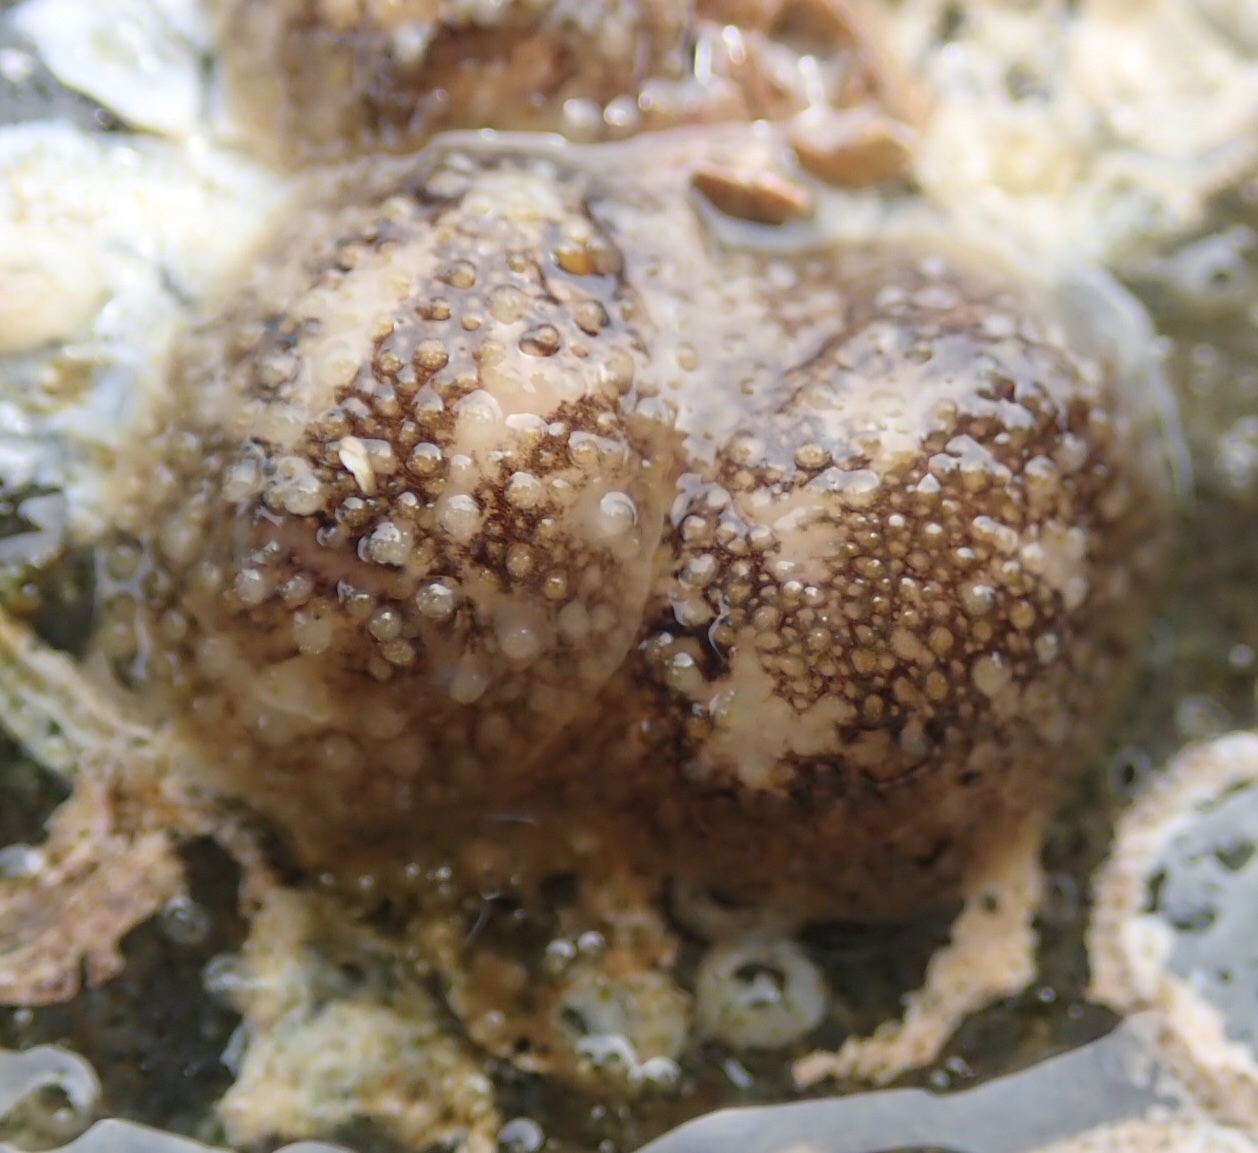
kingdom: Animalia
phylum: Mollusca
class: Gastropoda
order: Nudibranchia
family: Onchidorididae
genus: Onchidoris
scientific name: Onchidoris bilamellata
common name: Barnacle-eating onchidoris
